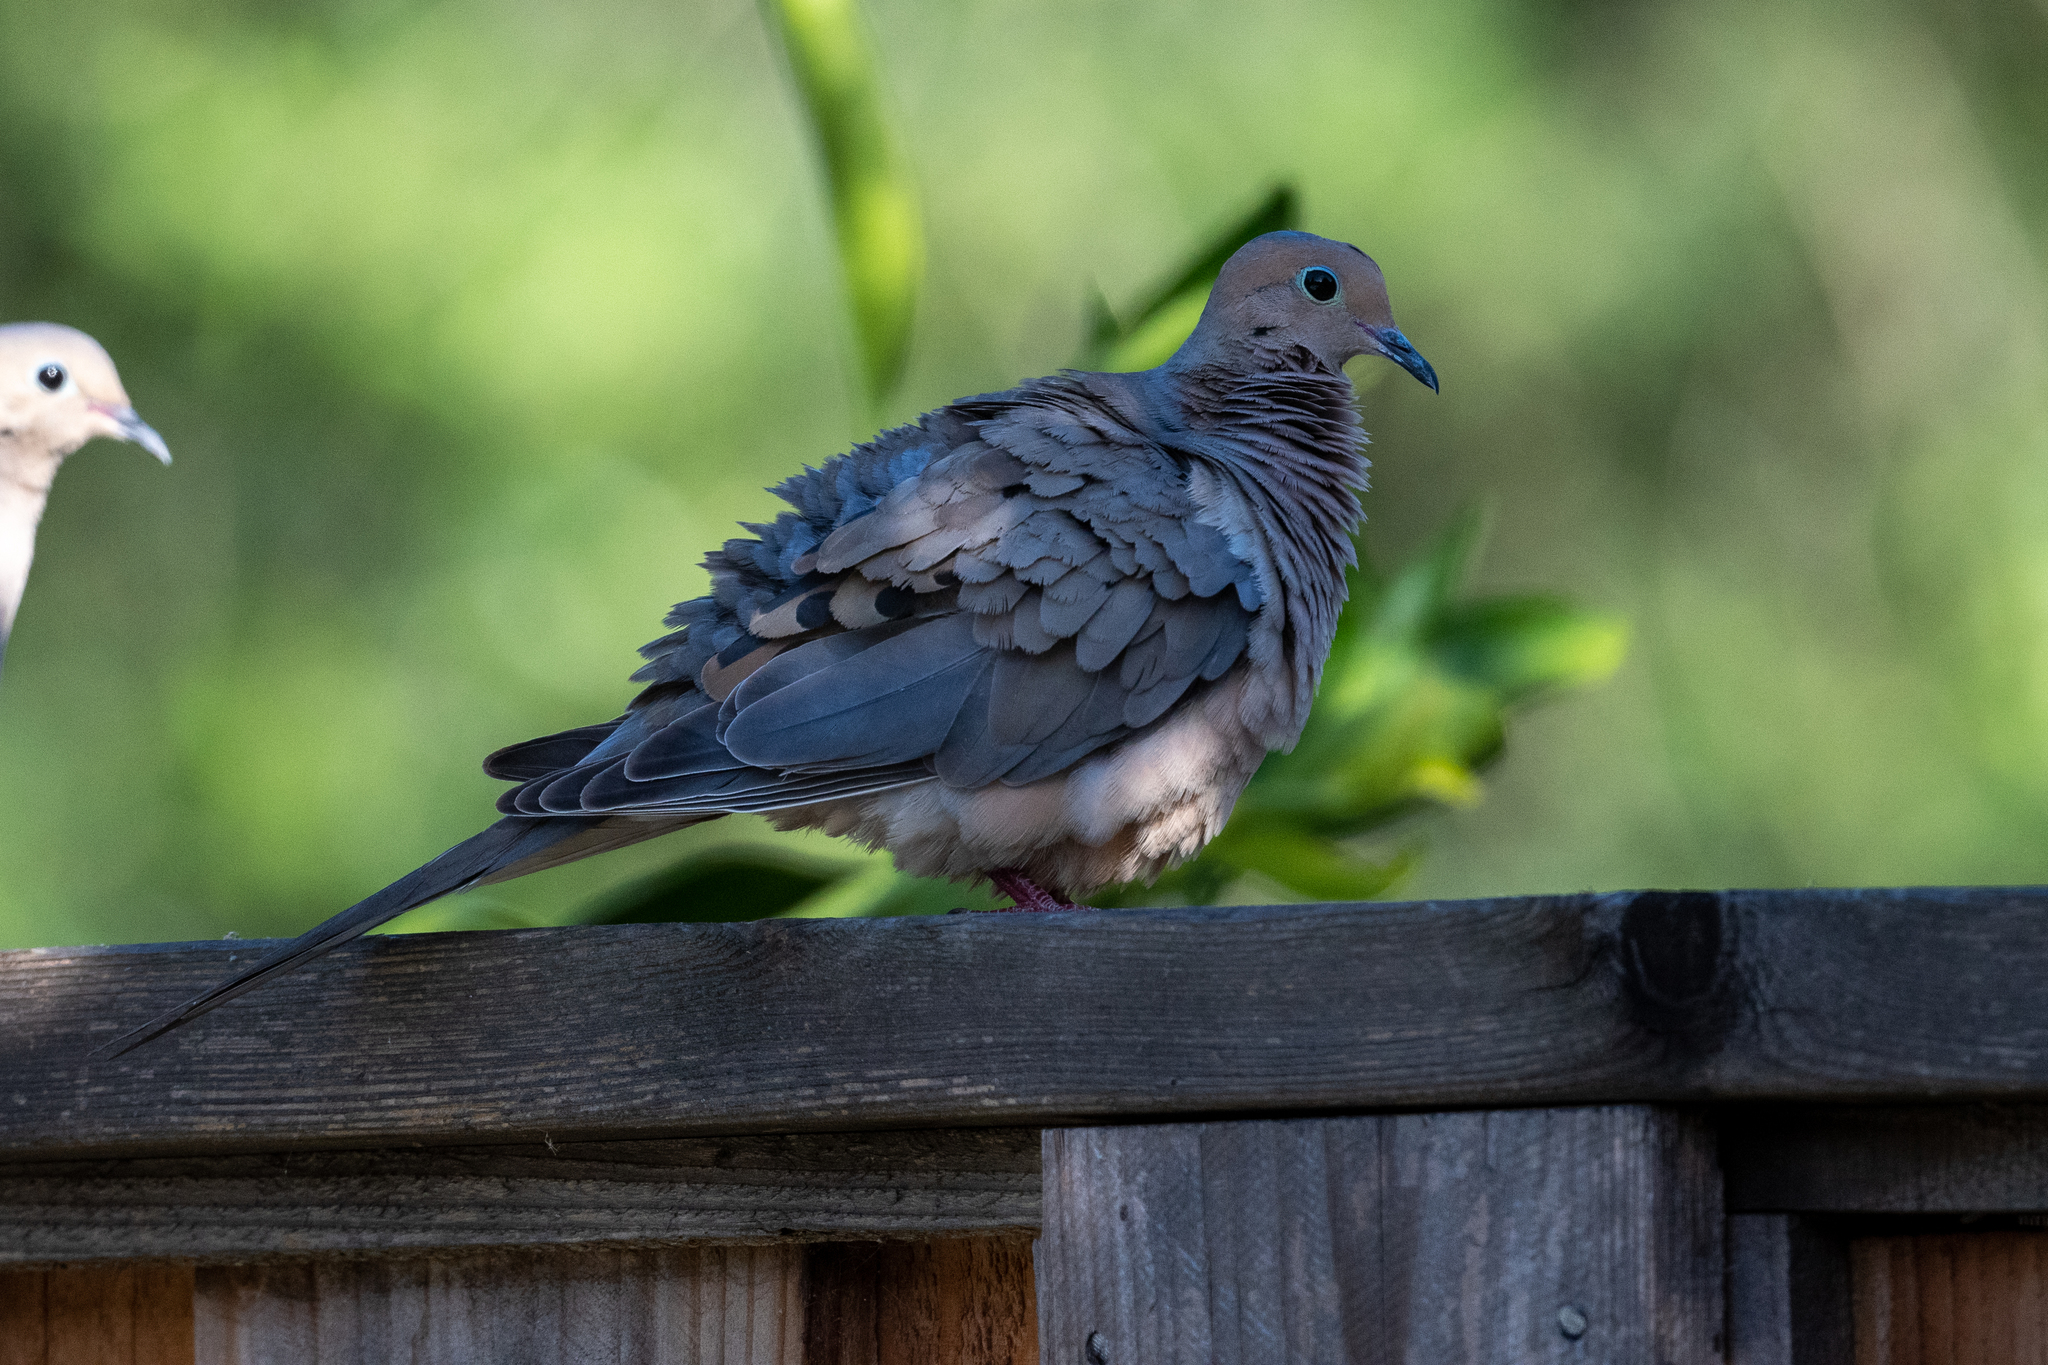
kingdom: Animalia
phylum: Chordata
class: Aves
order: Columbiformes
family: Columbidae
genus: Zenaida
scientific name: Zenaida macroura
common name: Mourning dove
